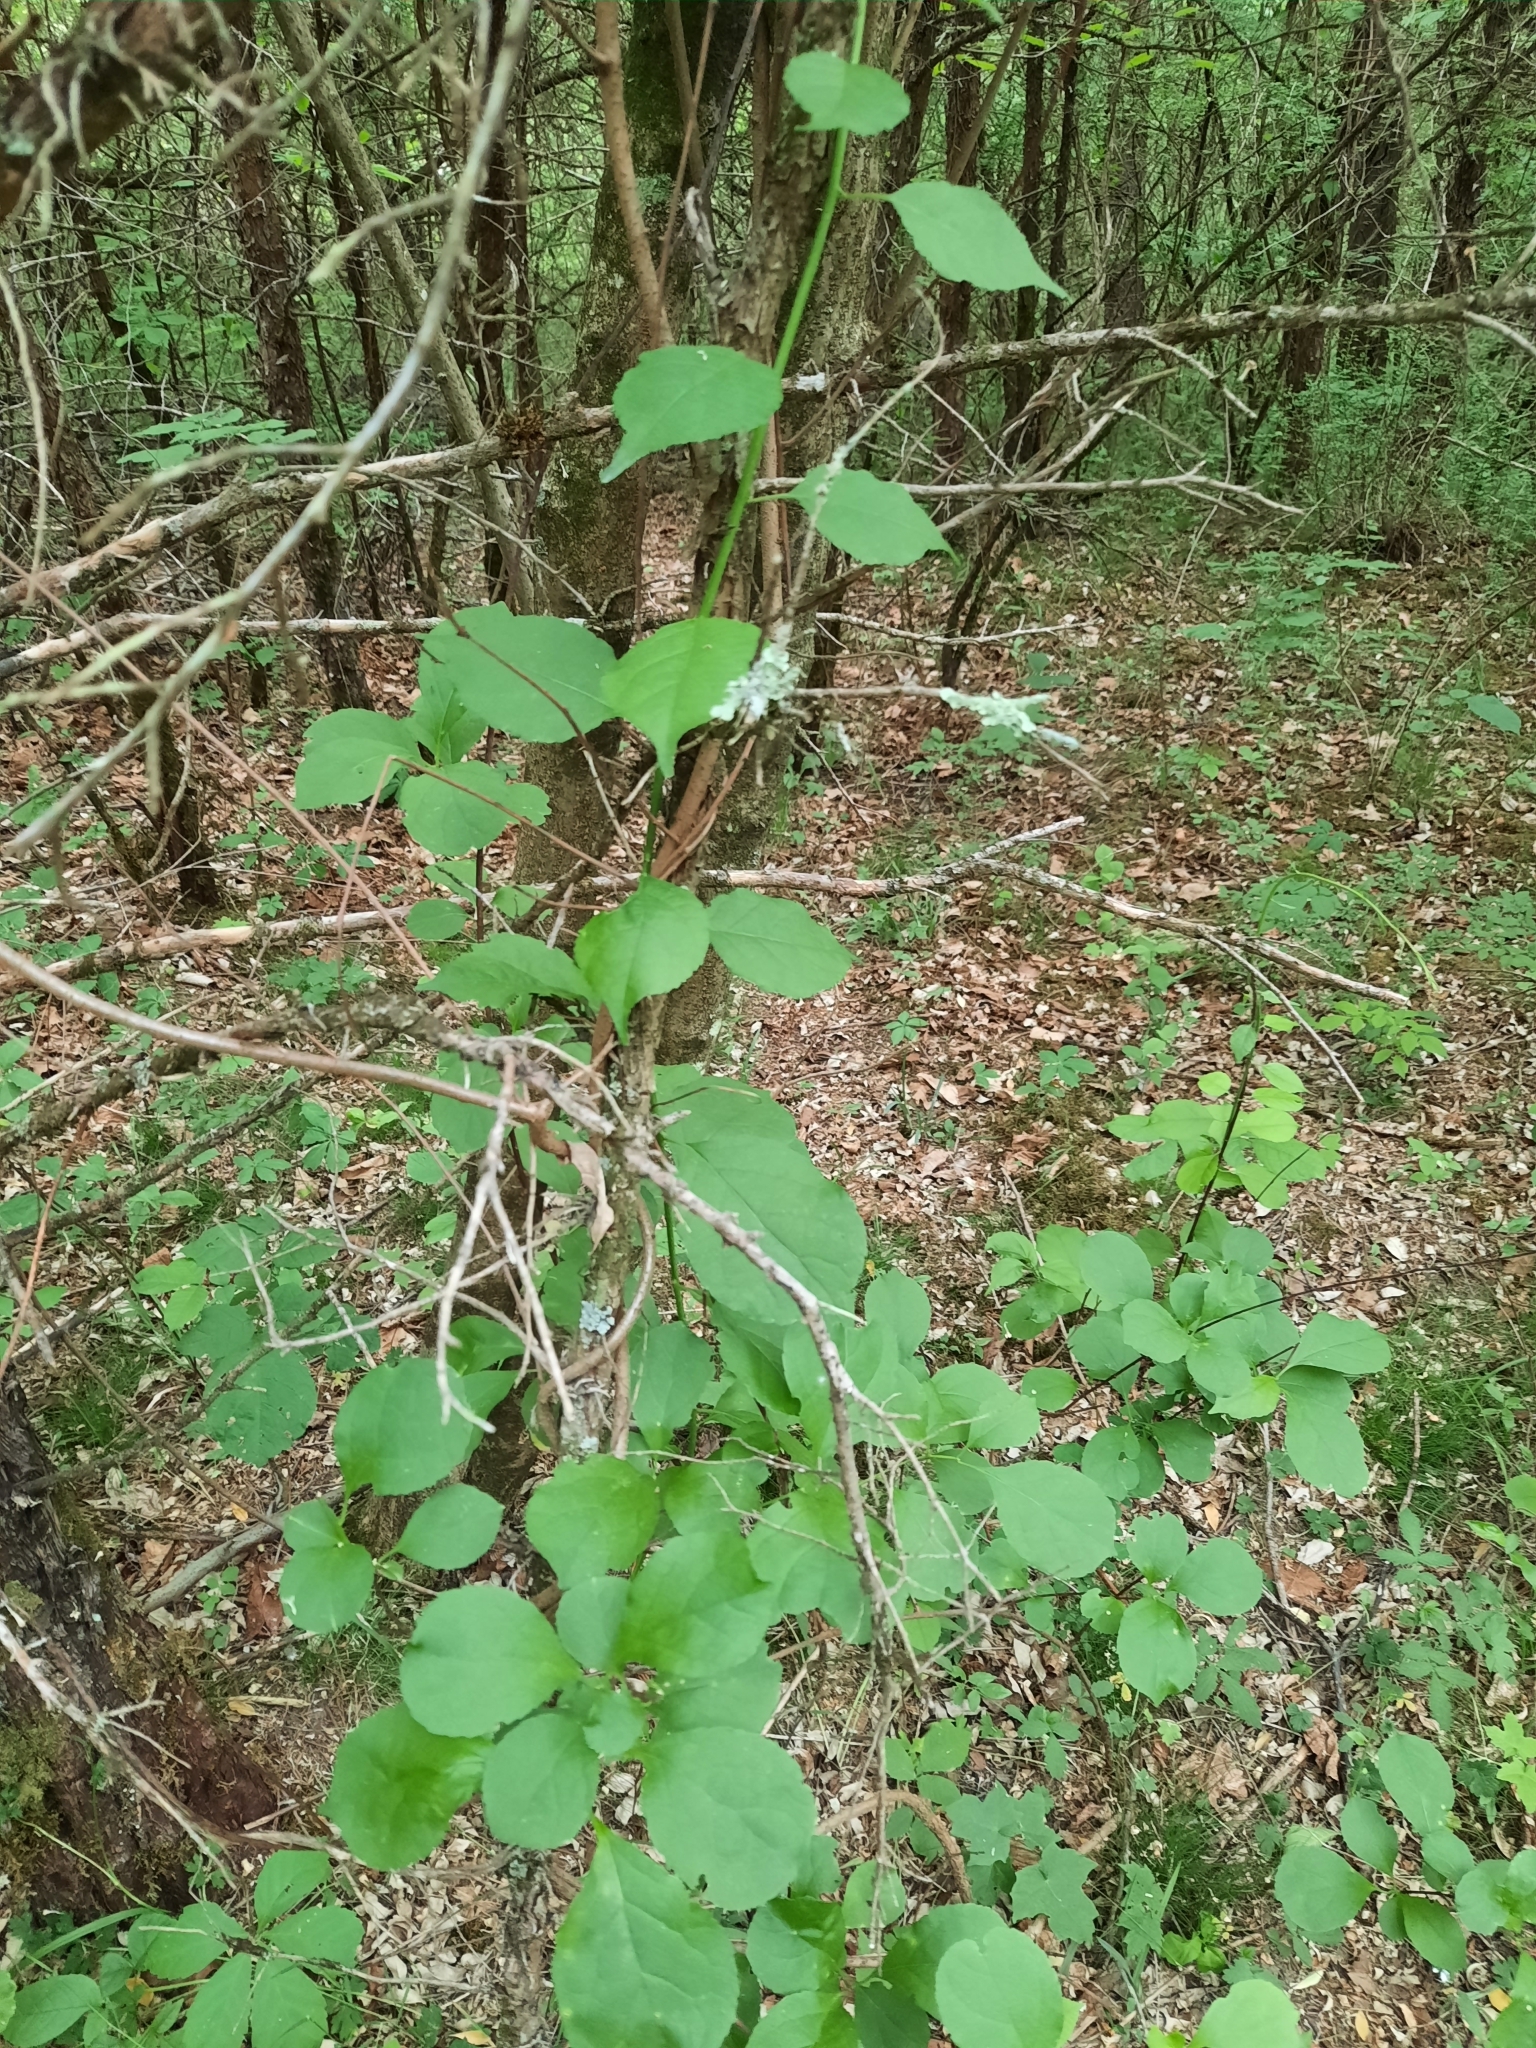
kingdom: Plantae
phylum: Tracheophyta
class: Magnoliopsida
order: Celastrales
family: Celastraceae
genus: Celastrus
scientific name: Celastrus orbiculatus
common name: Oriental bittersweet
